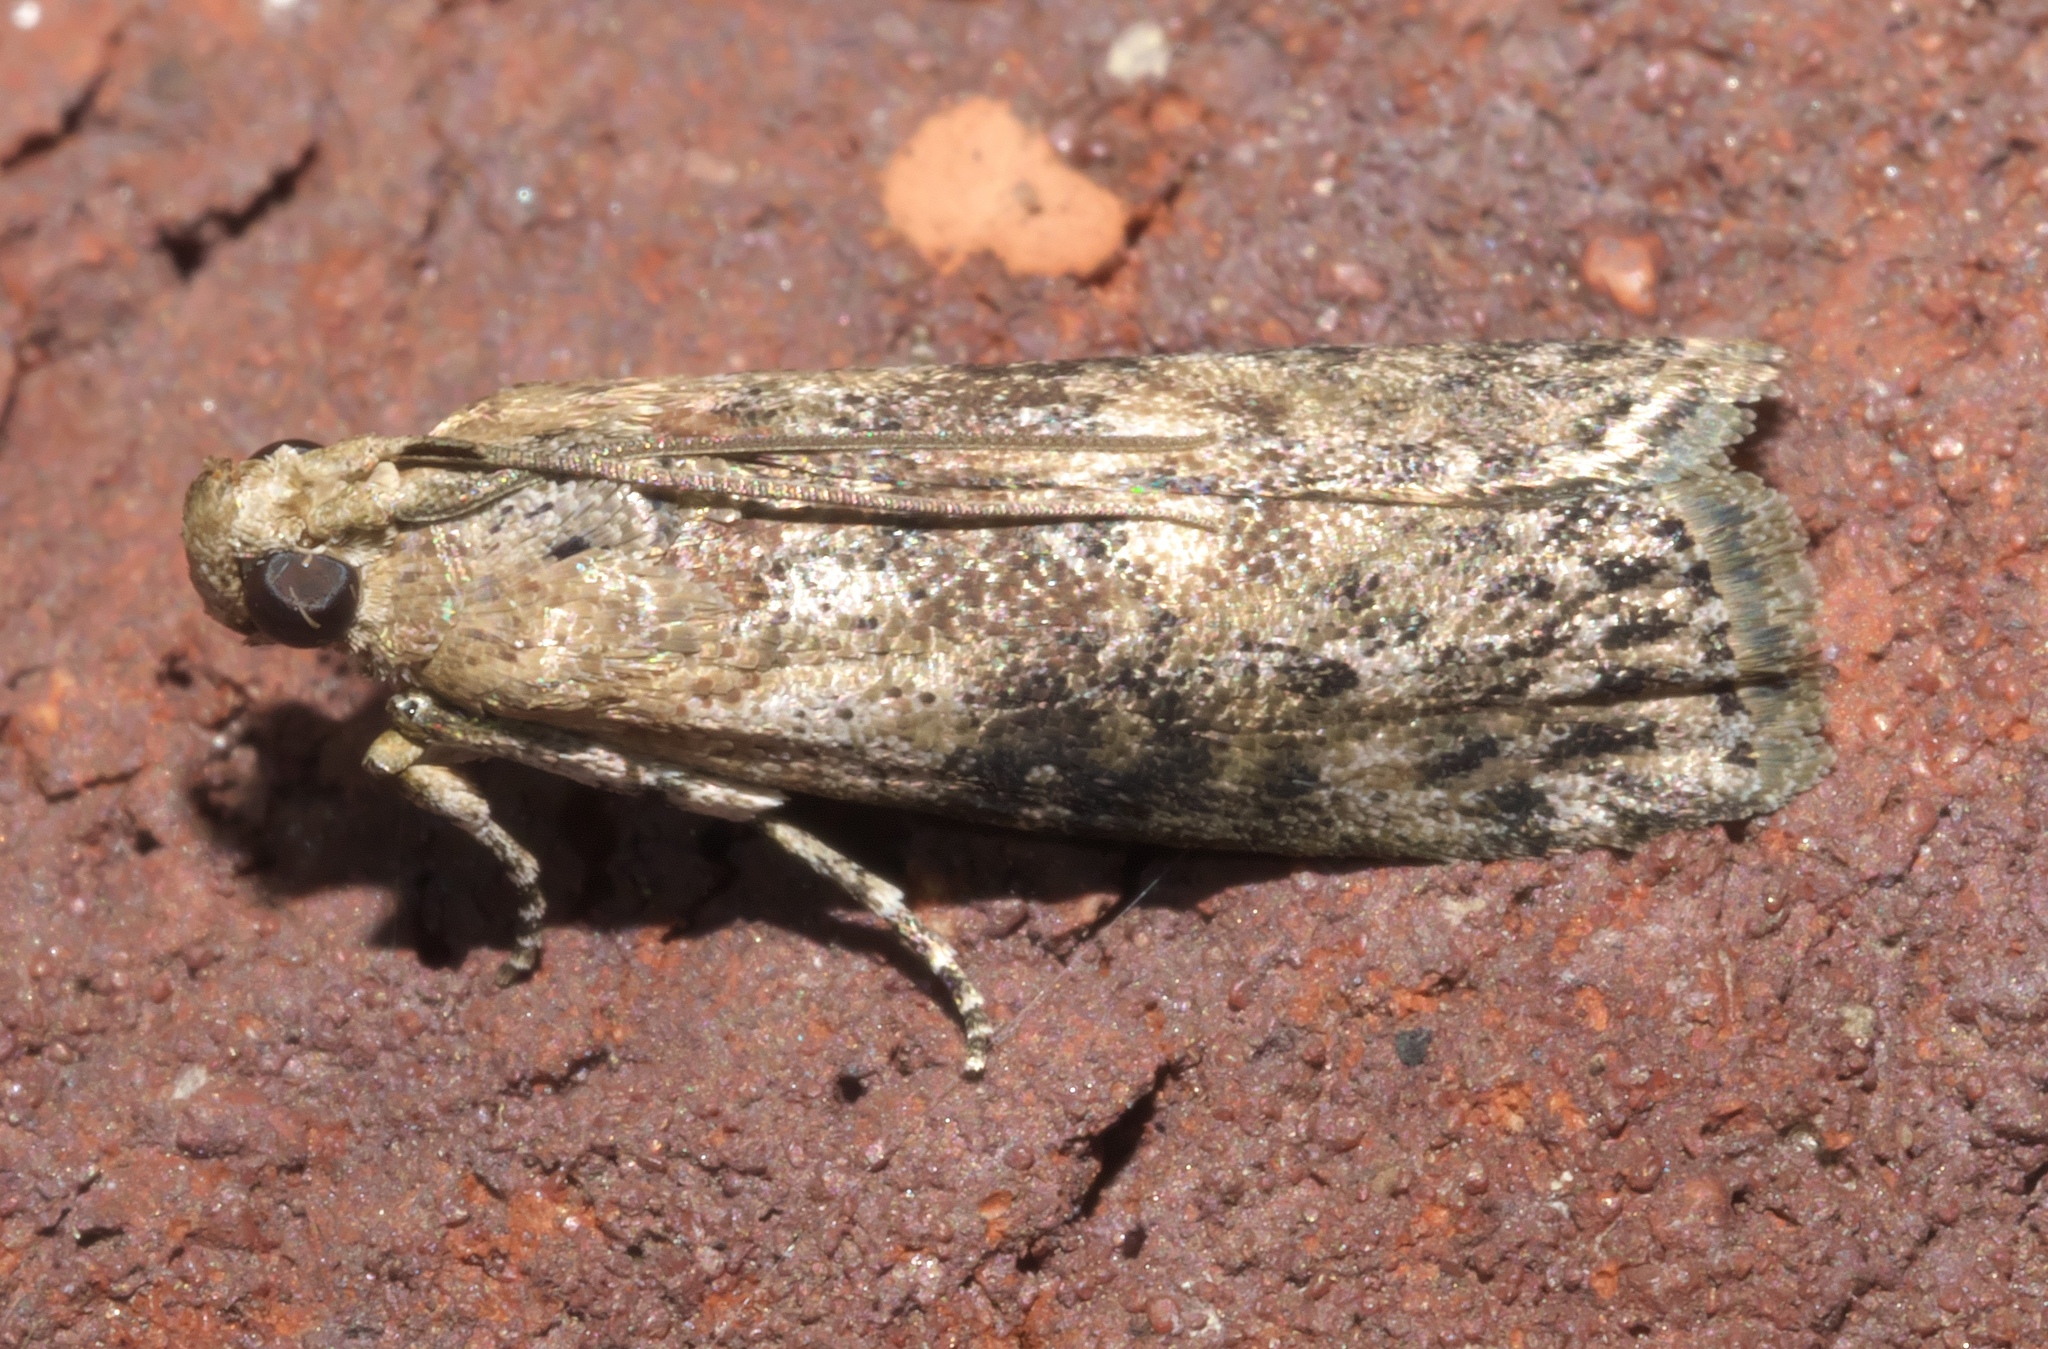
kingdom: Animalia
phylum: Arthropoda
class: Insecta
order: Lepidoptera
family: Pyralidae
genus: Sciota
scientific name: Sciota celtidella
